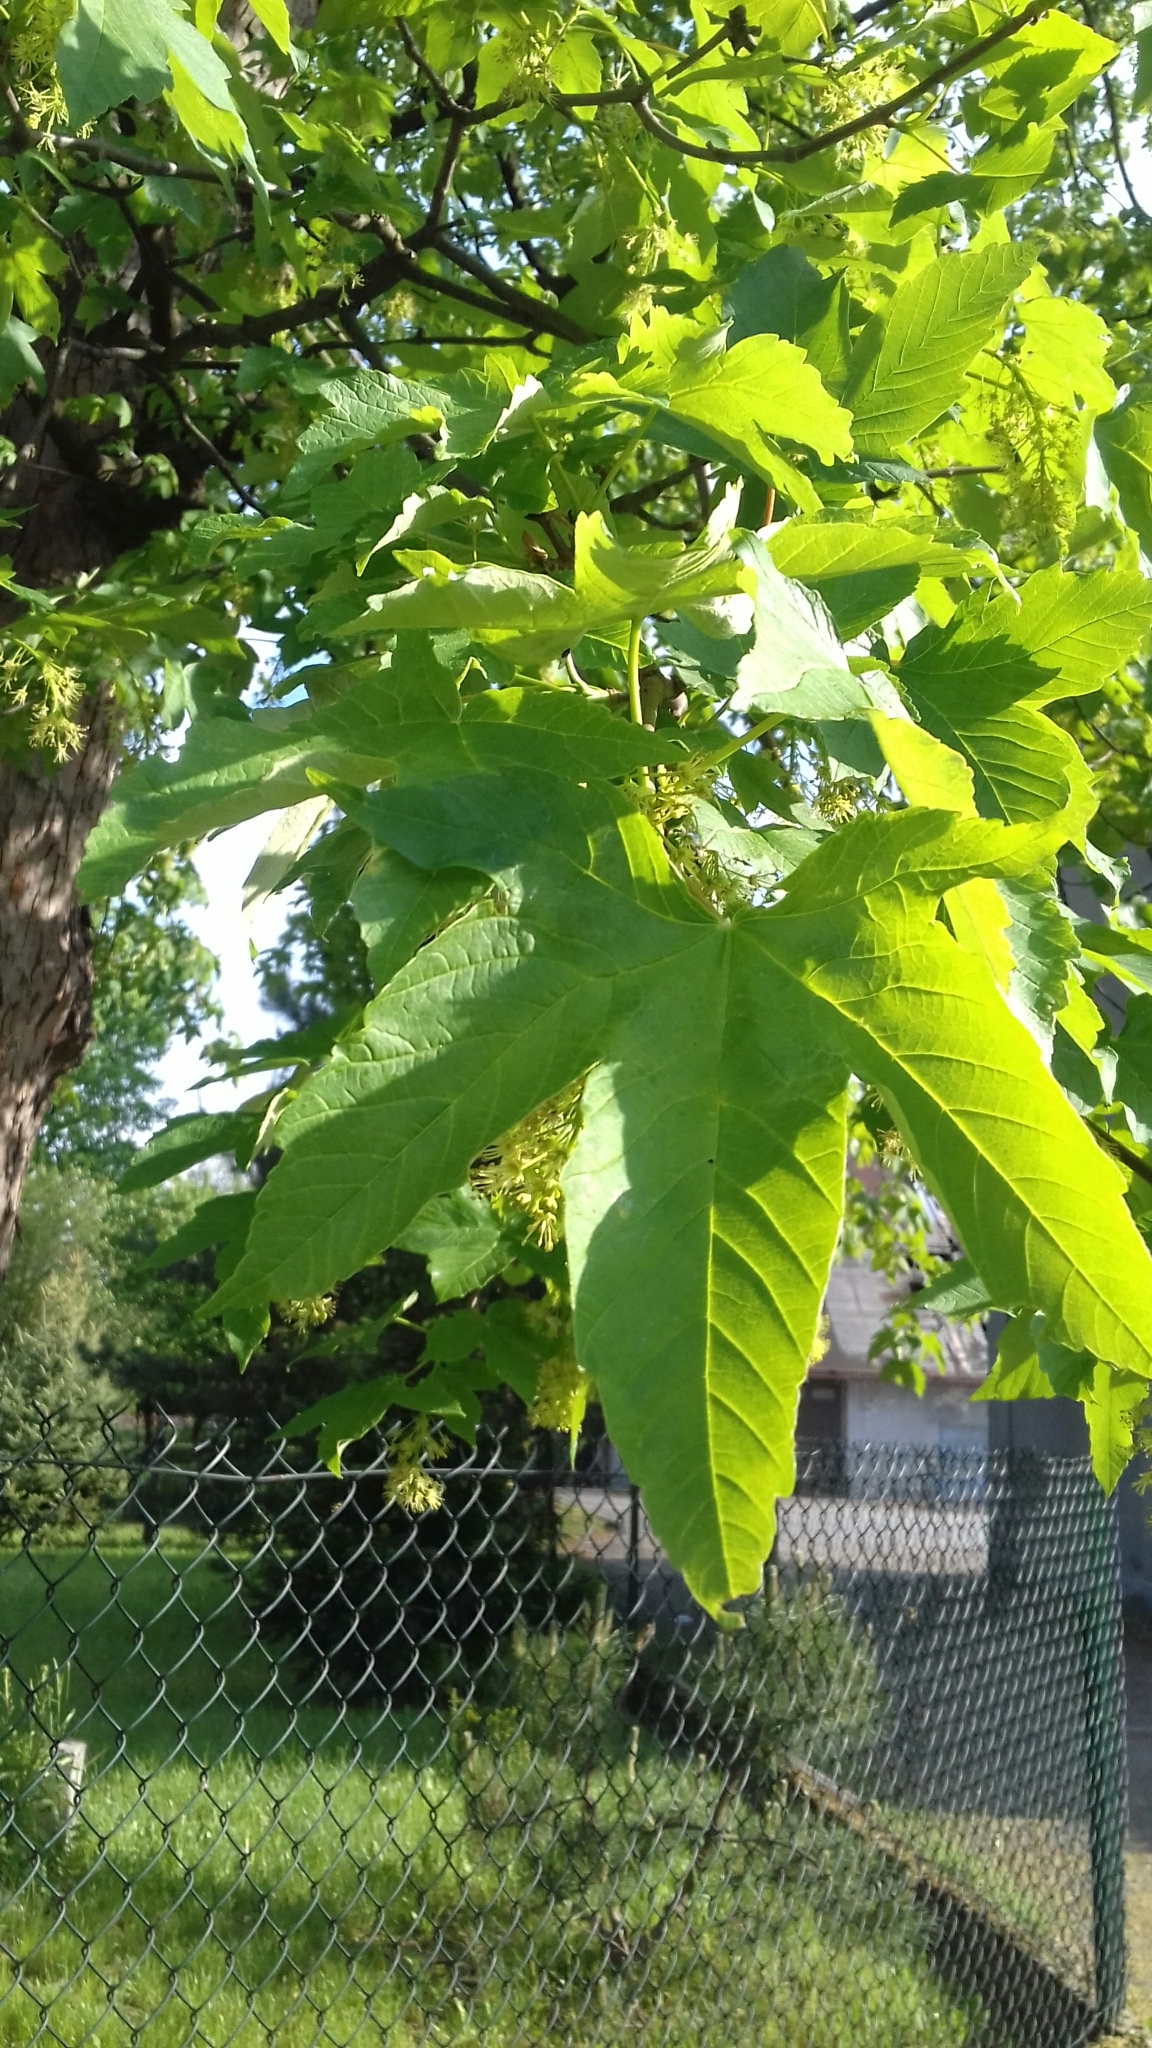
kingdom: Plantae
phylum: Tracheophyta
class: Magnoliopsida
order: Sapindales
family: Sapindaceae
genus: Acer
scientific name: Acer pseudoplatanus
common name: Sycamore
